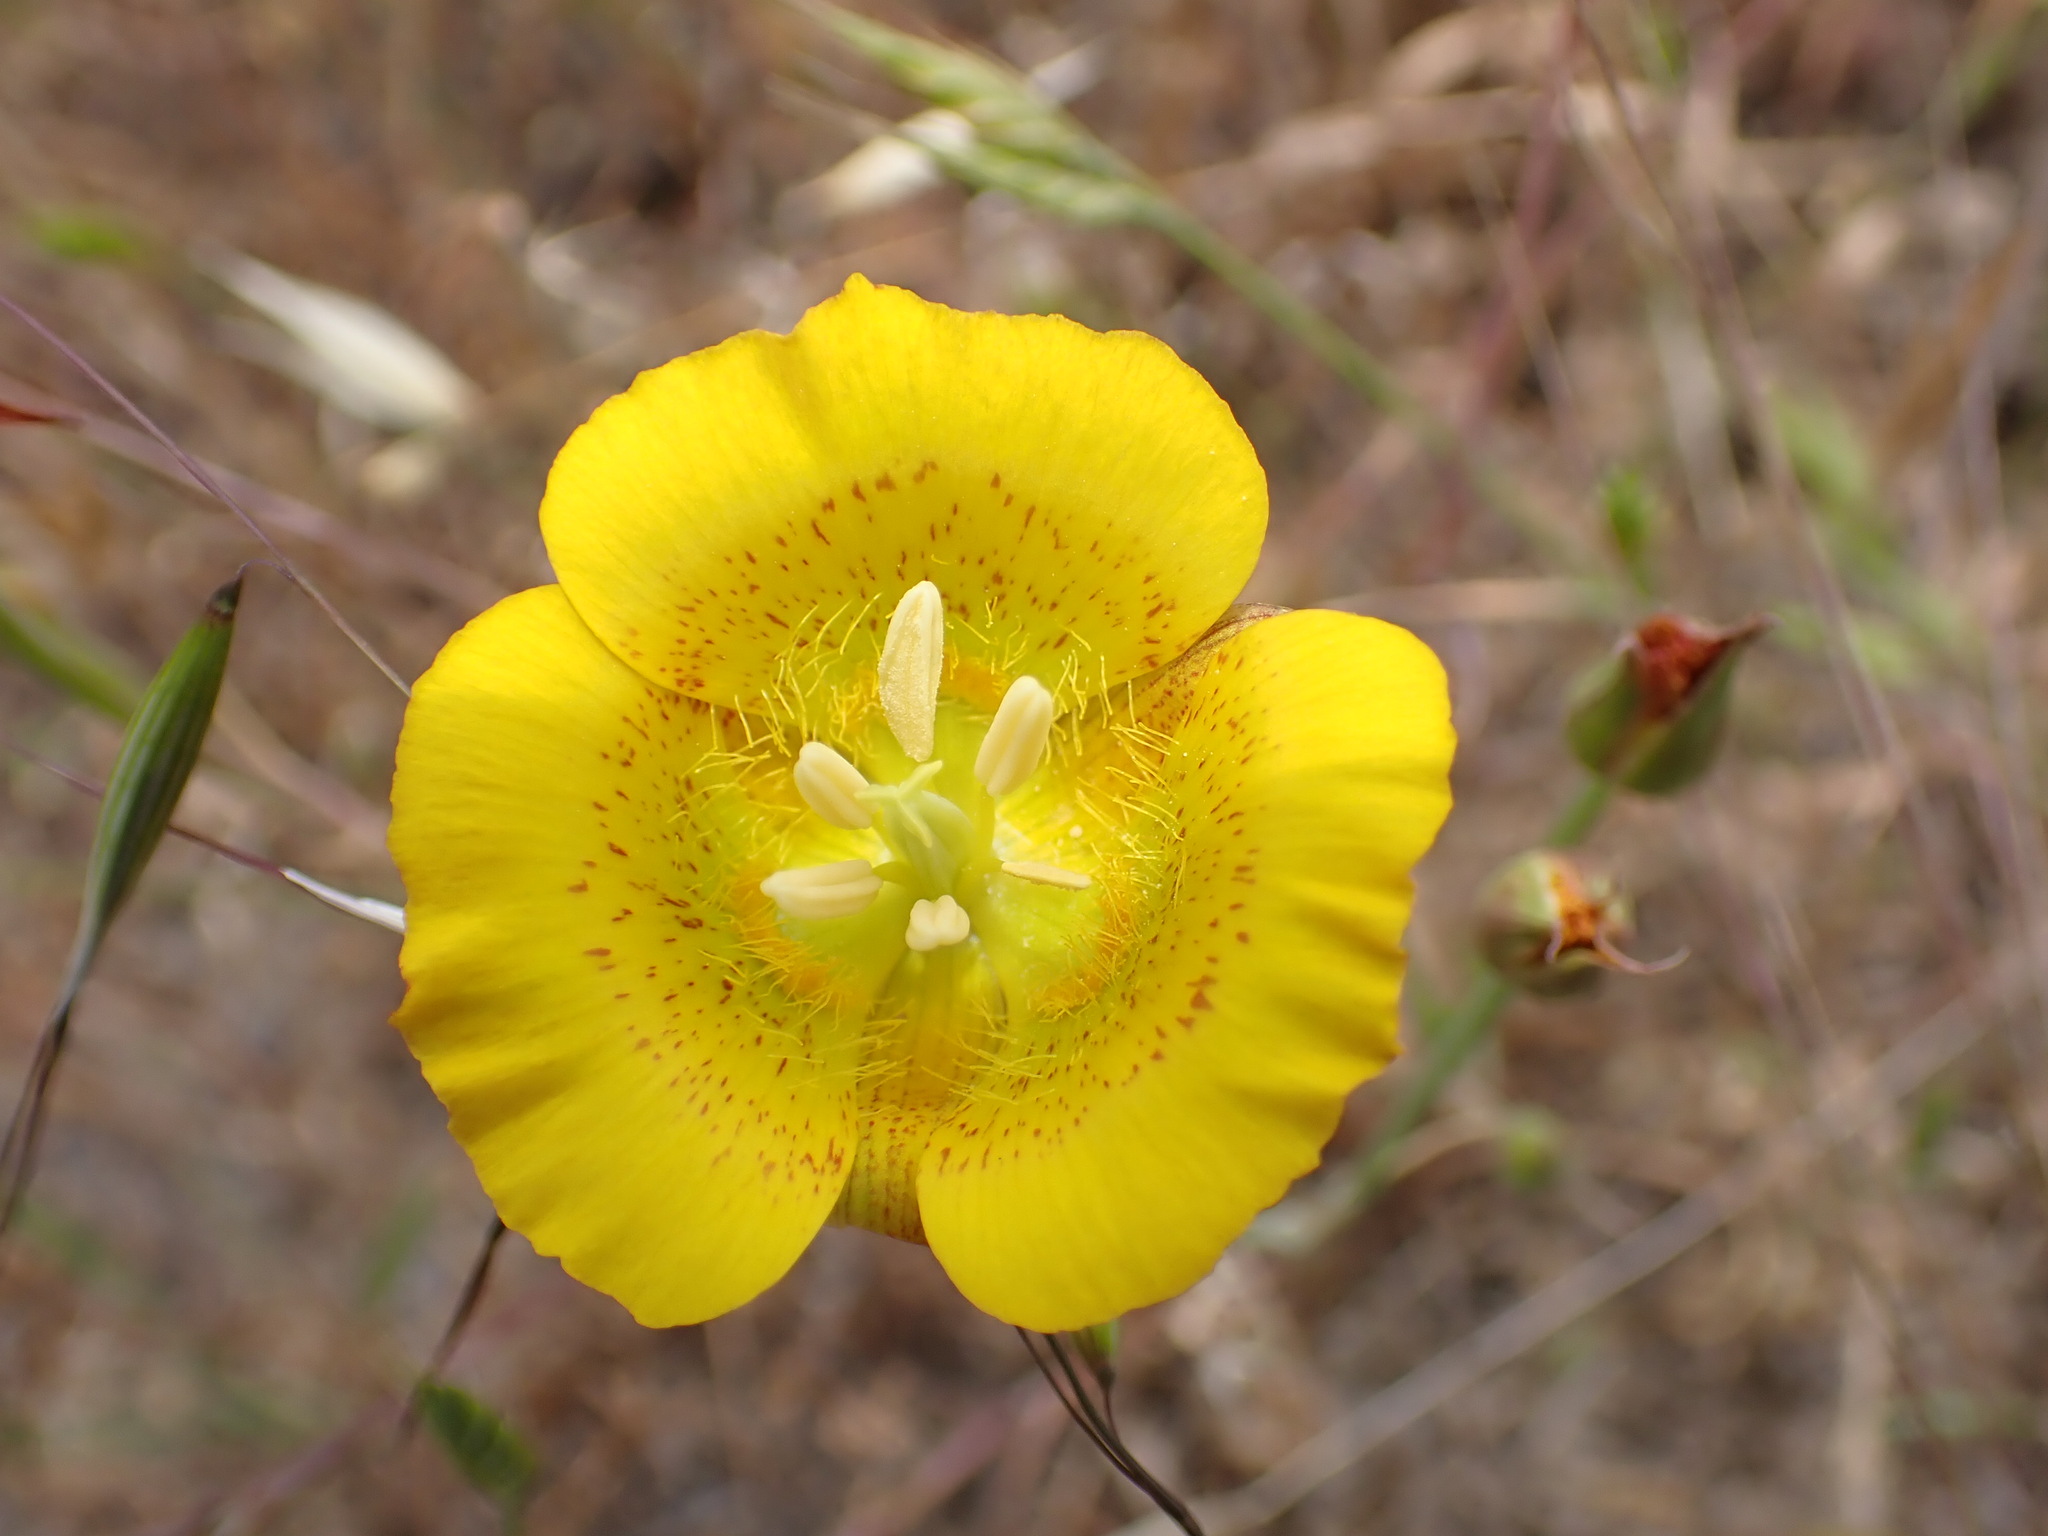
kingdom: Plantae
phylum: Tracheophyta
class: Liliopsida
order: Liliales
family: Liliaceae
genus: Calochortus
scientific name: Calochortus luteus
